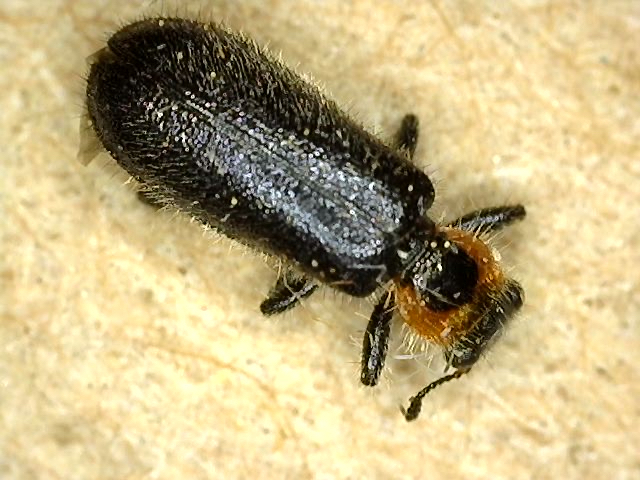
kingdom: Animalia
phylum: Arthropoda
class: Insecta
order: Coleoptera
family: Cleridae
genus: Placopterus
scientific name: Placopterus thoracicus
